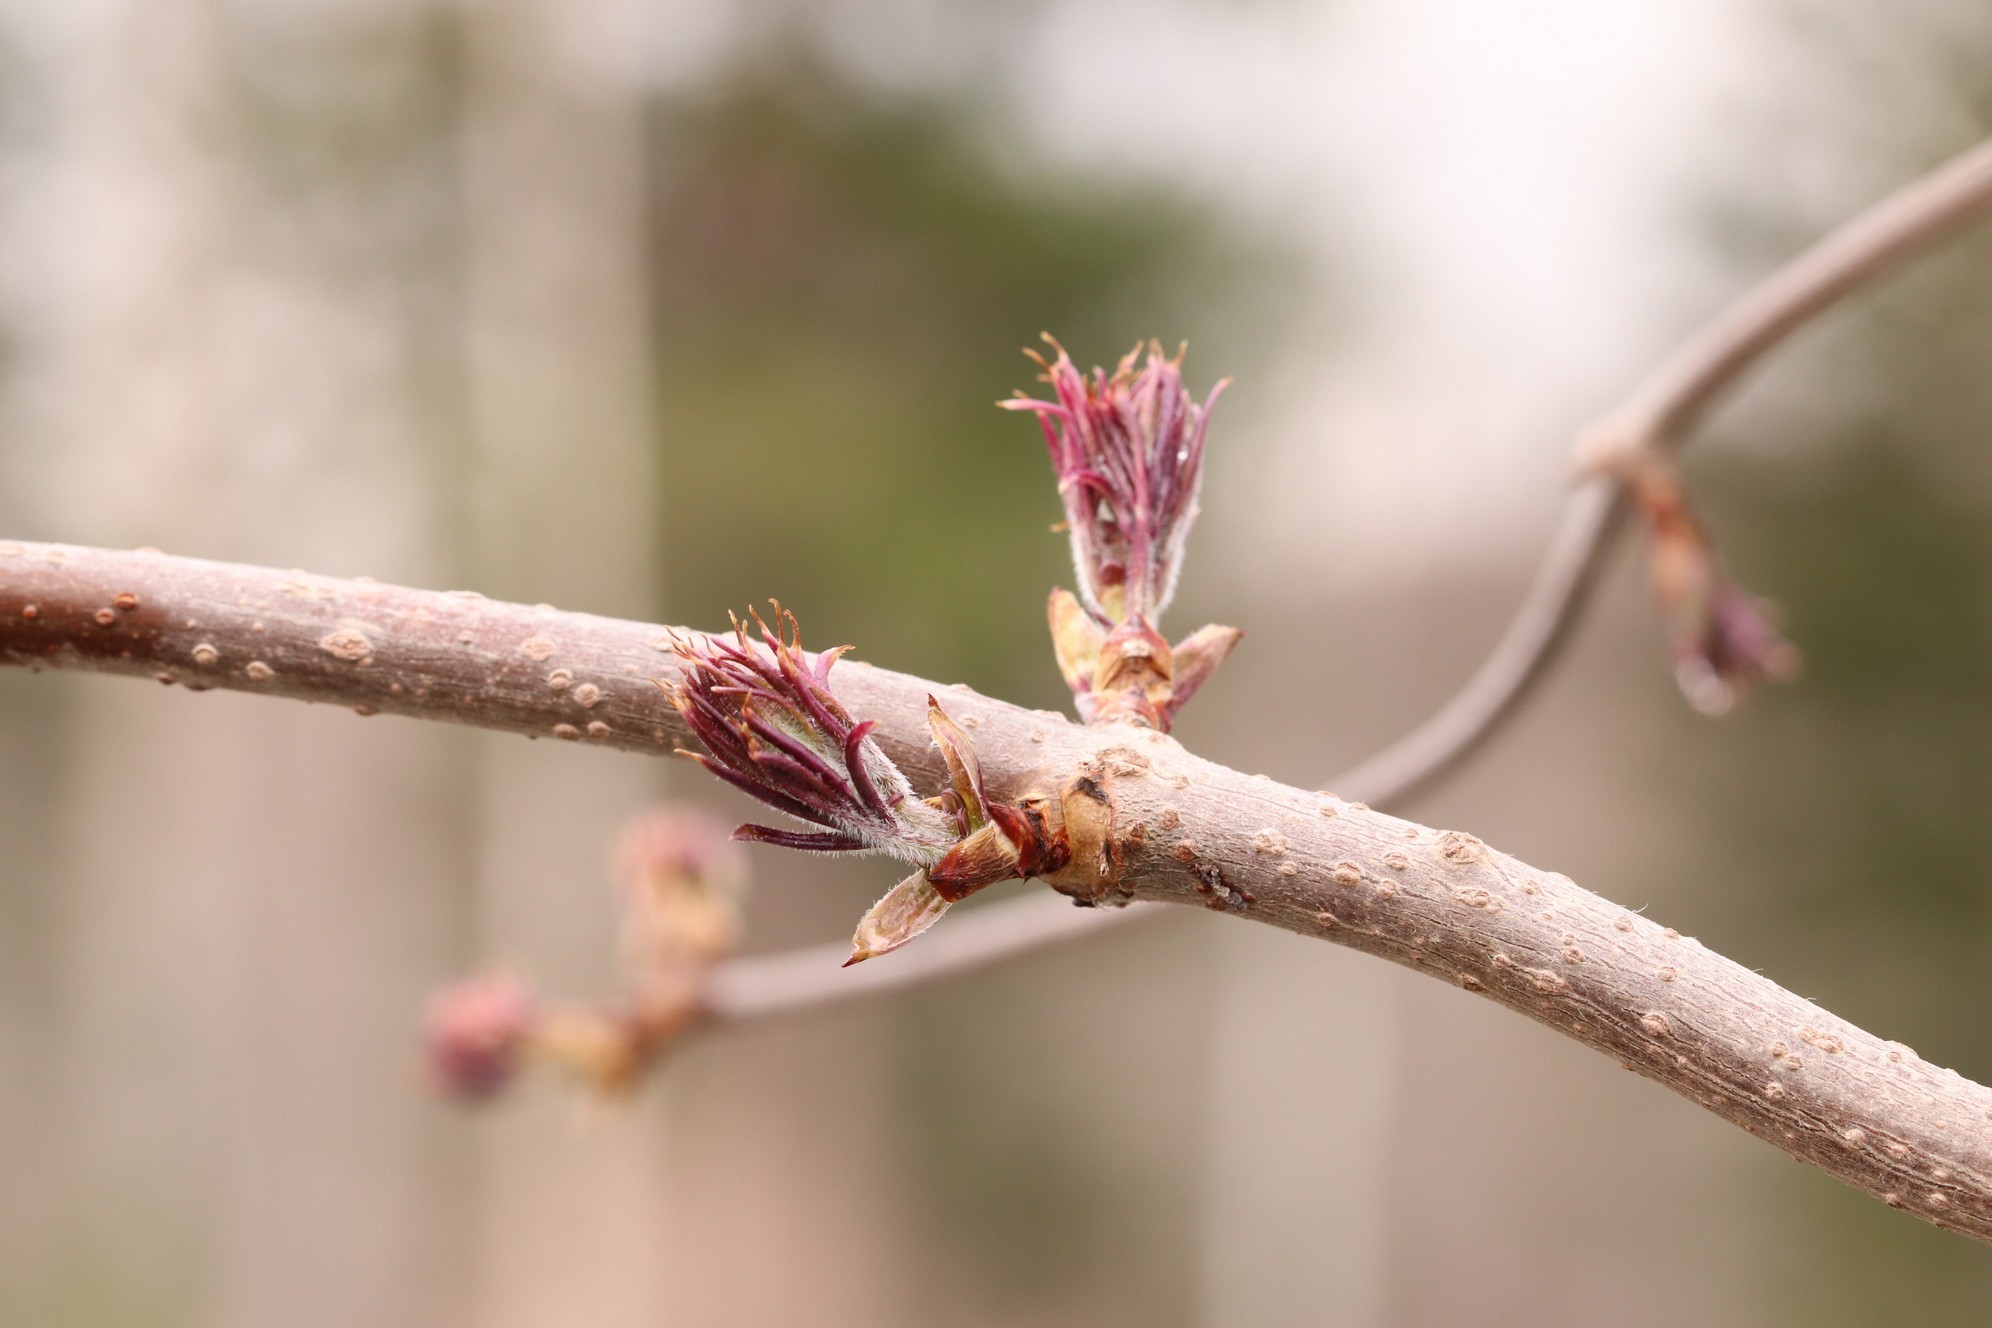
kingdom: Plantae
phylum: Tracheophyta
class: Magnoliopsida
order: Dipsacales
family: Viburnaceae
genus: Sambucus
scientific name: Sambucus sibirica
